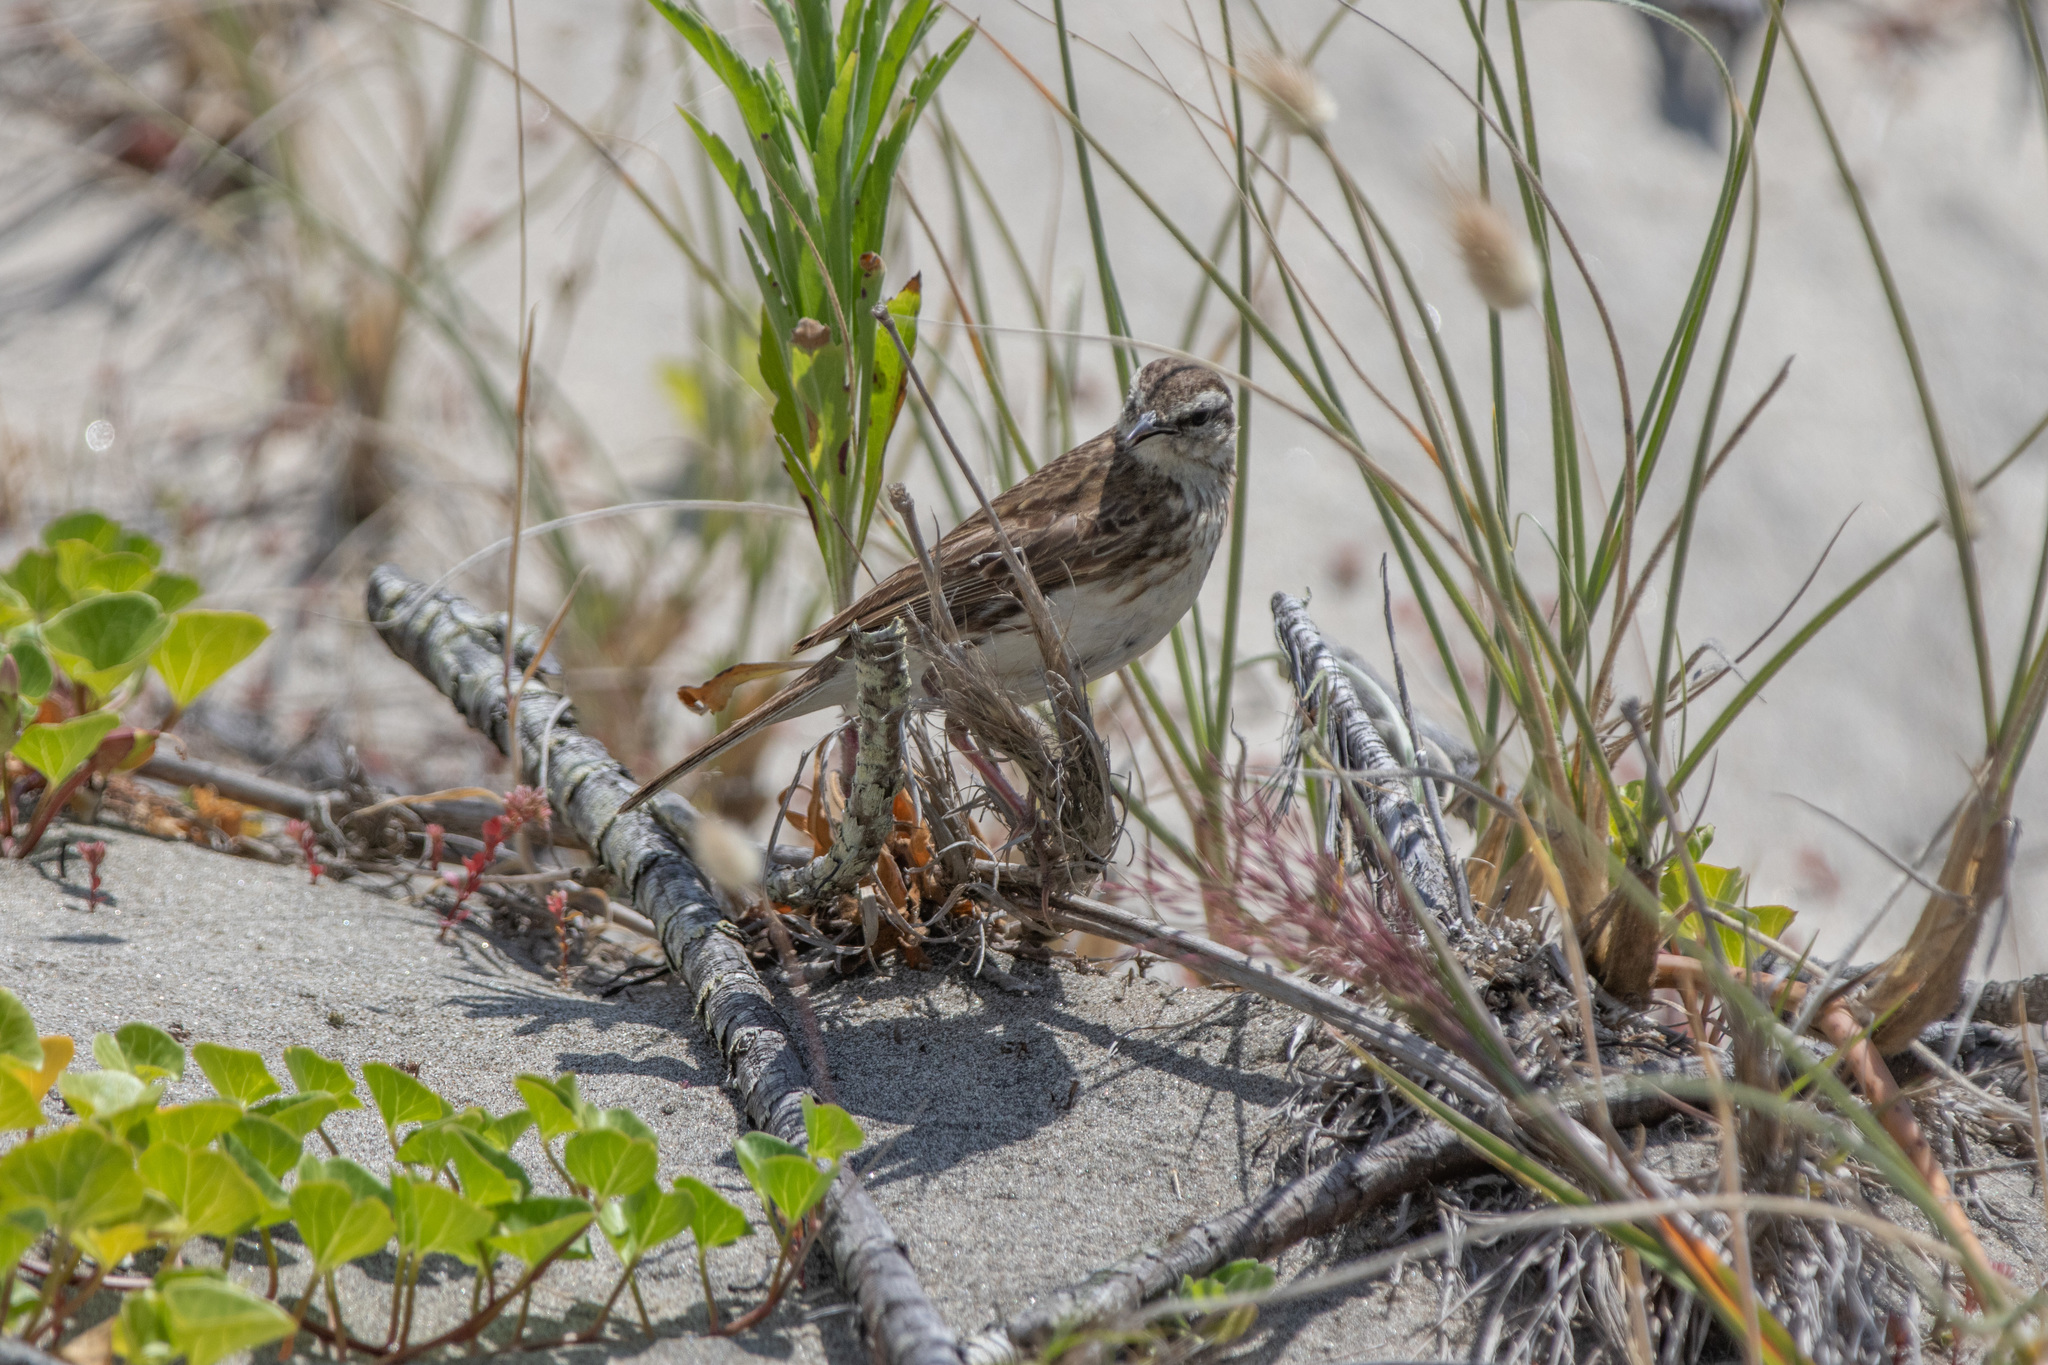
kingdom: Animalia
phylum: Chordata
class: Aves
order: Passeriformes
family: Motacillidae
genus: Anthus
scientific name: Anthus novaeseelandiae
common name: New zealand pipit
